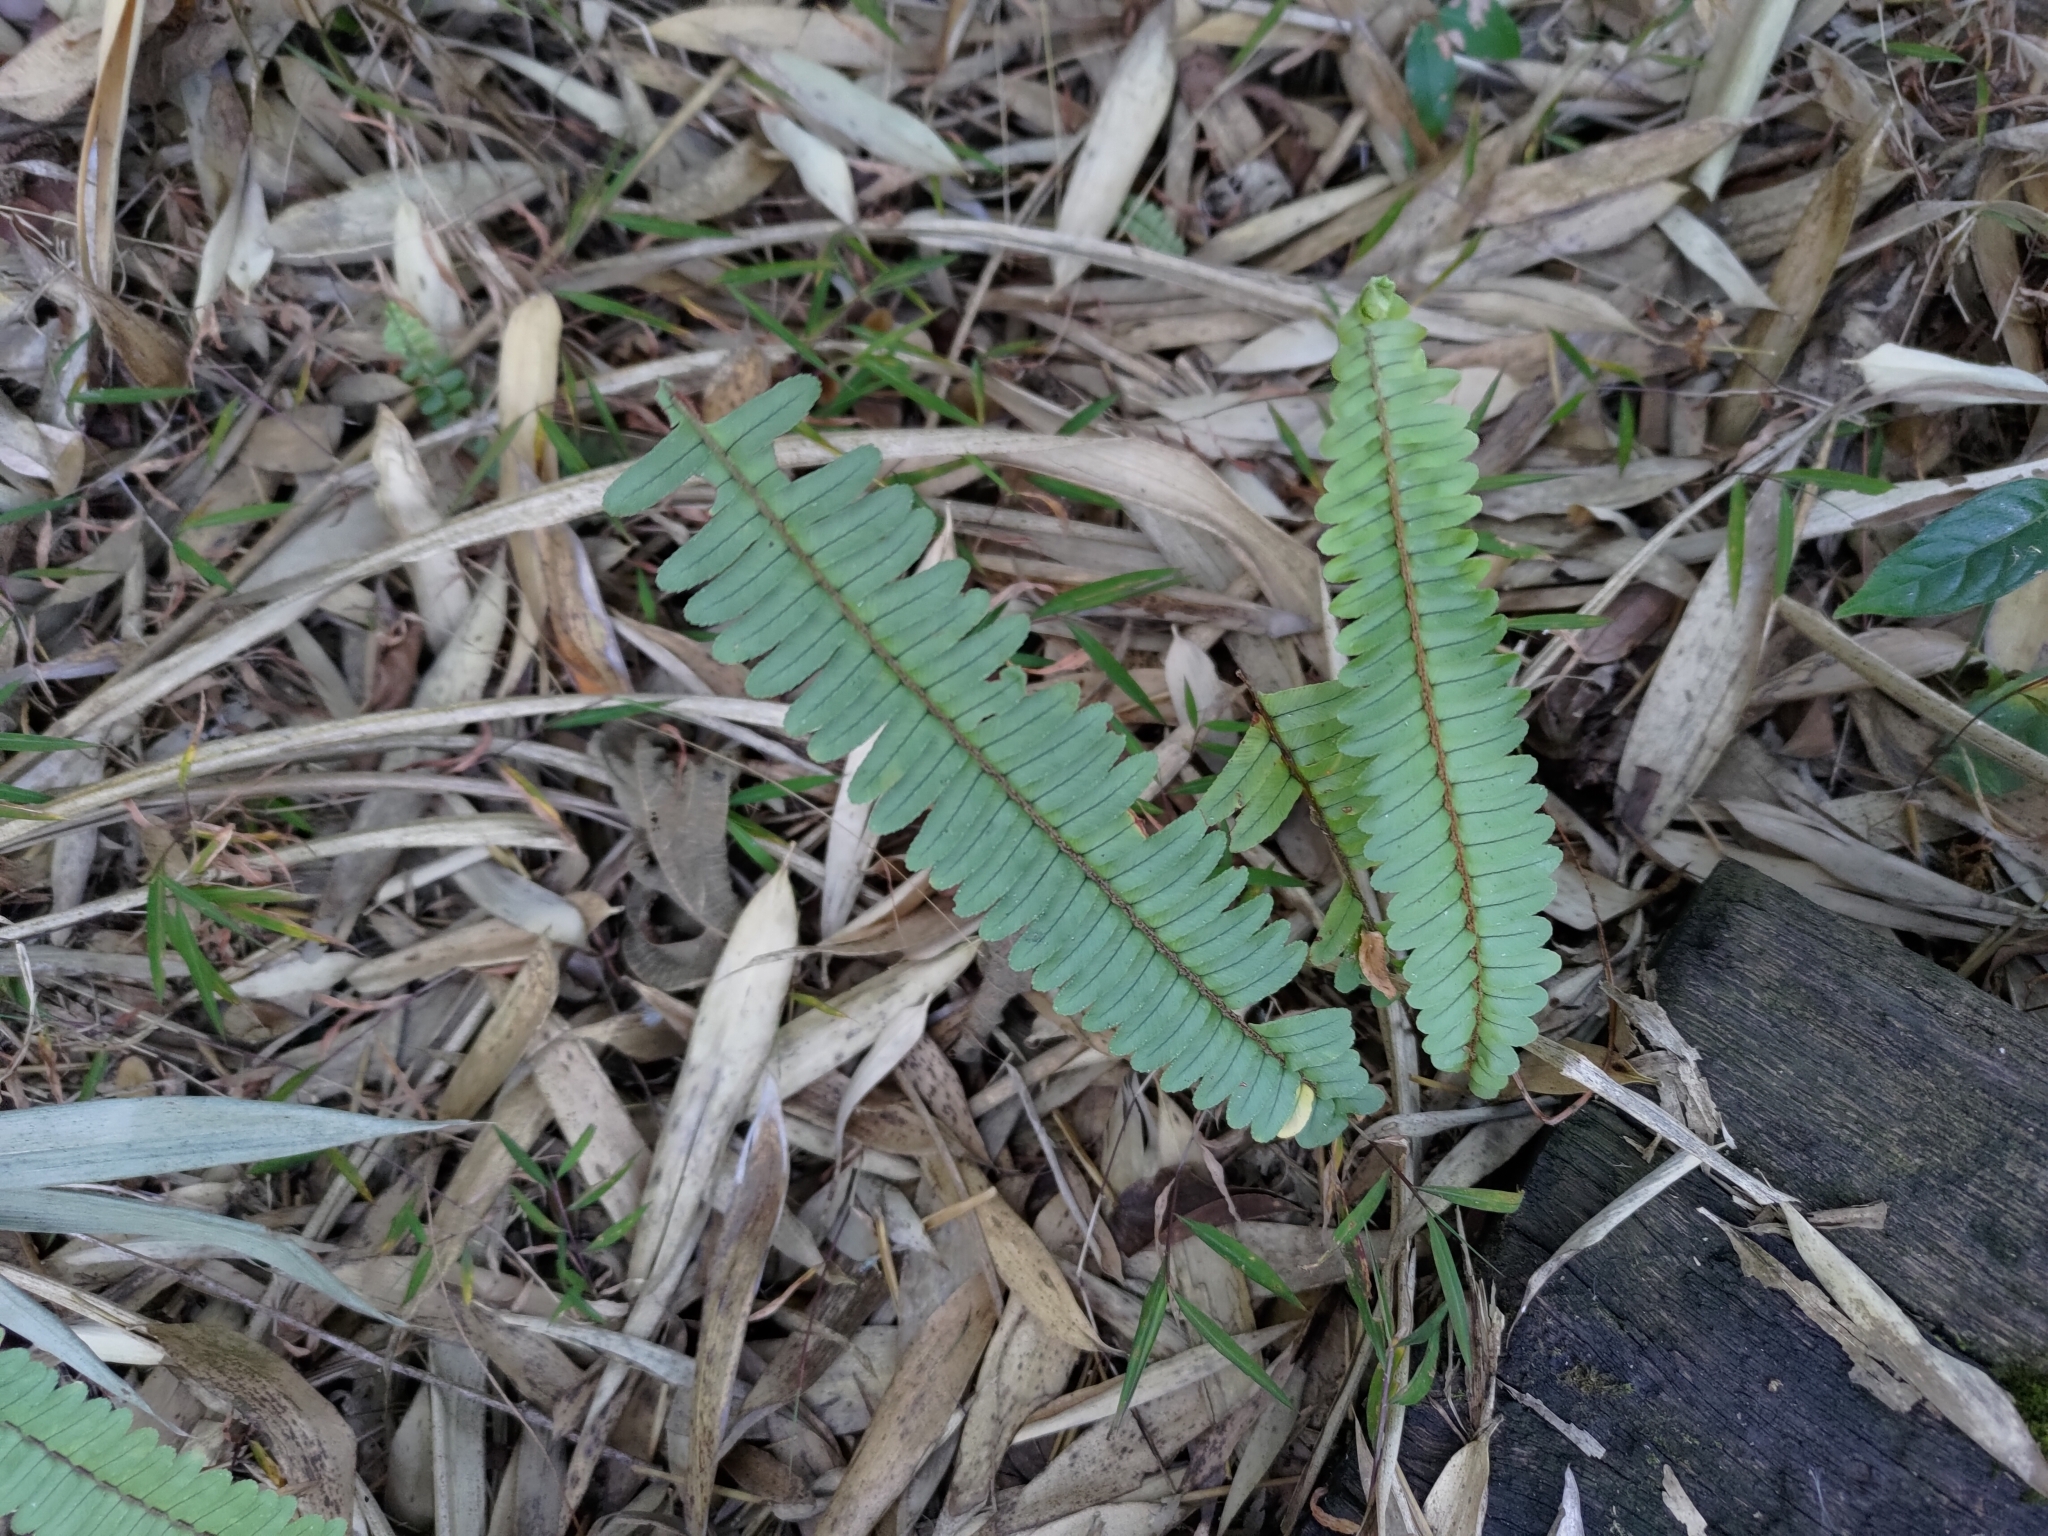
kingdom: Plantae
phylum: Tracheophyta
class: Polypodiopsida
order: Polypodiales
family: Nephrolepidaceae
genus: Nephrolepis
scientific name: Nephrolepis cordifolia
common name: Narrow swordfern
